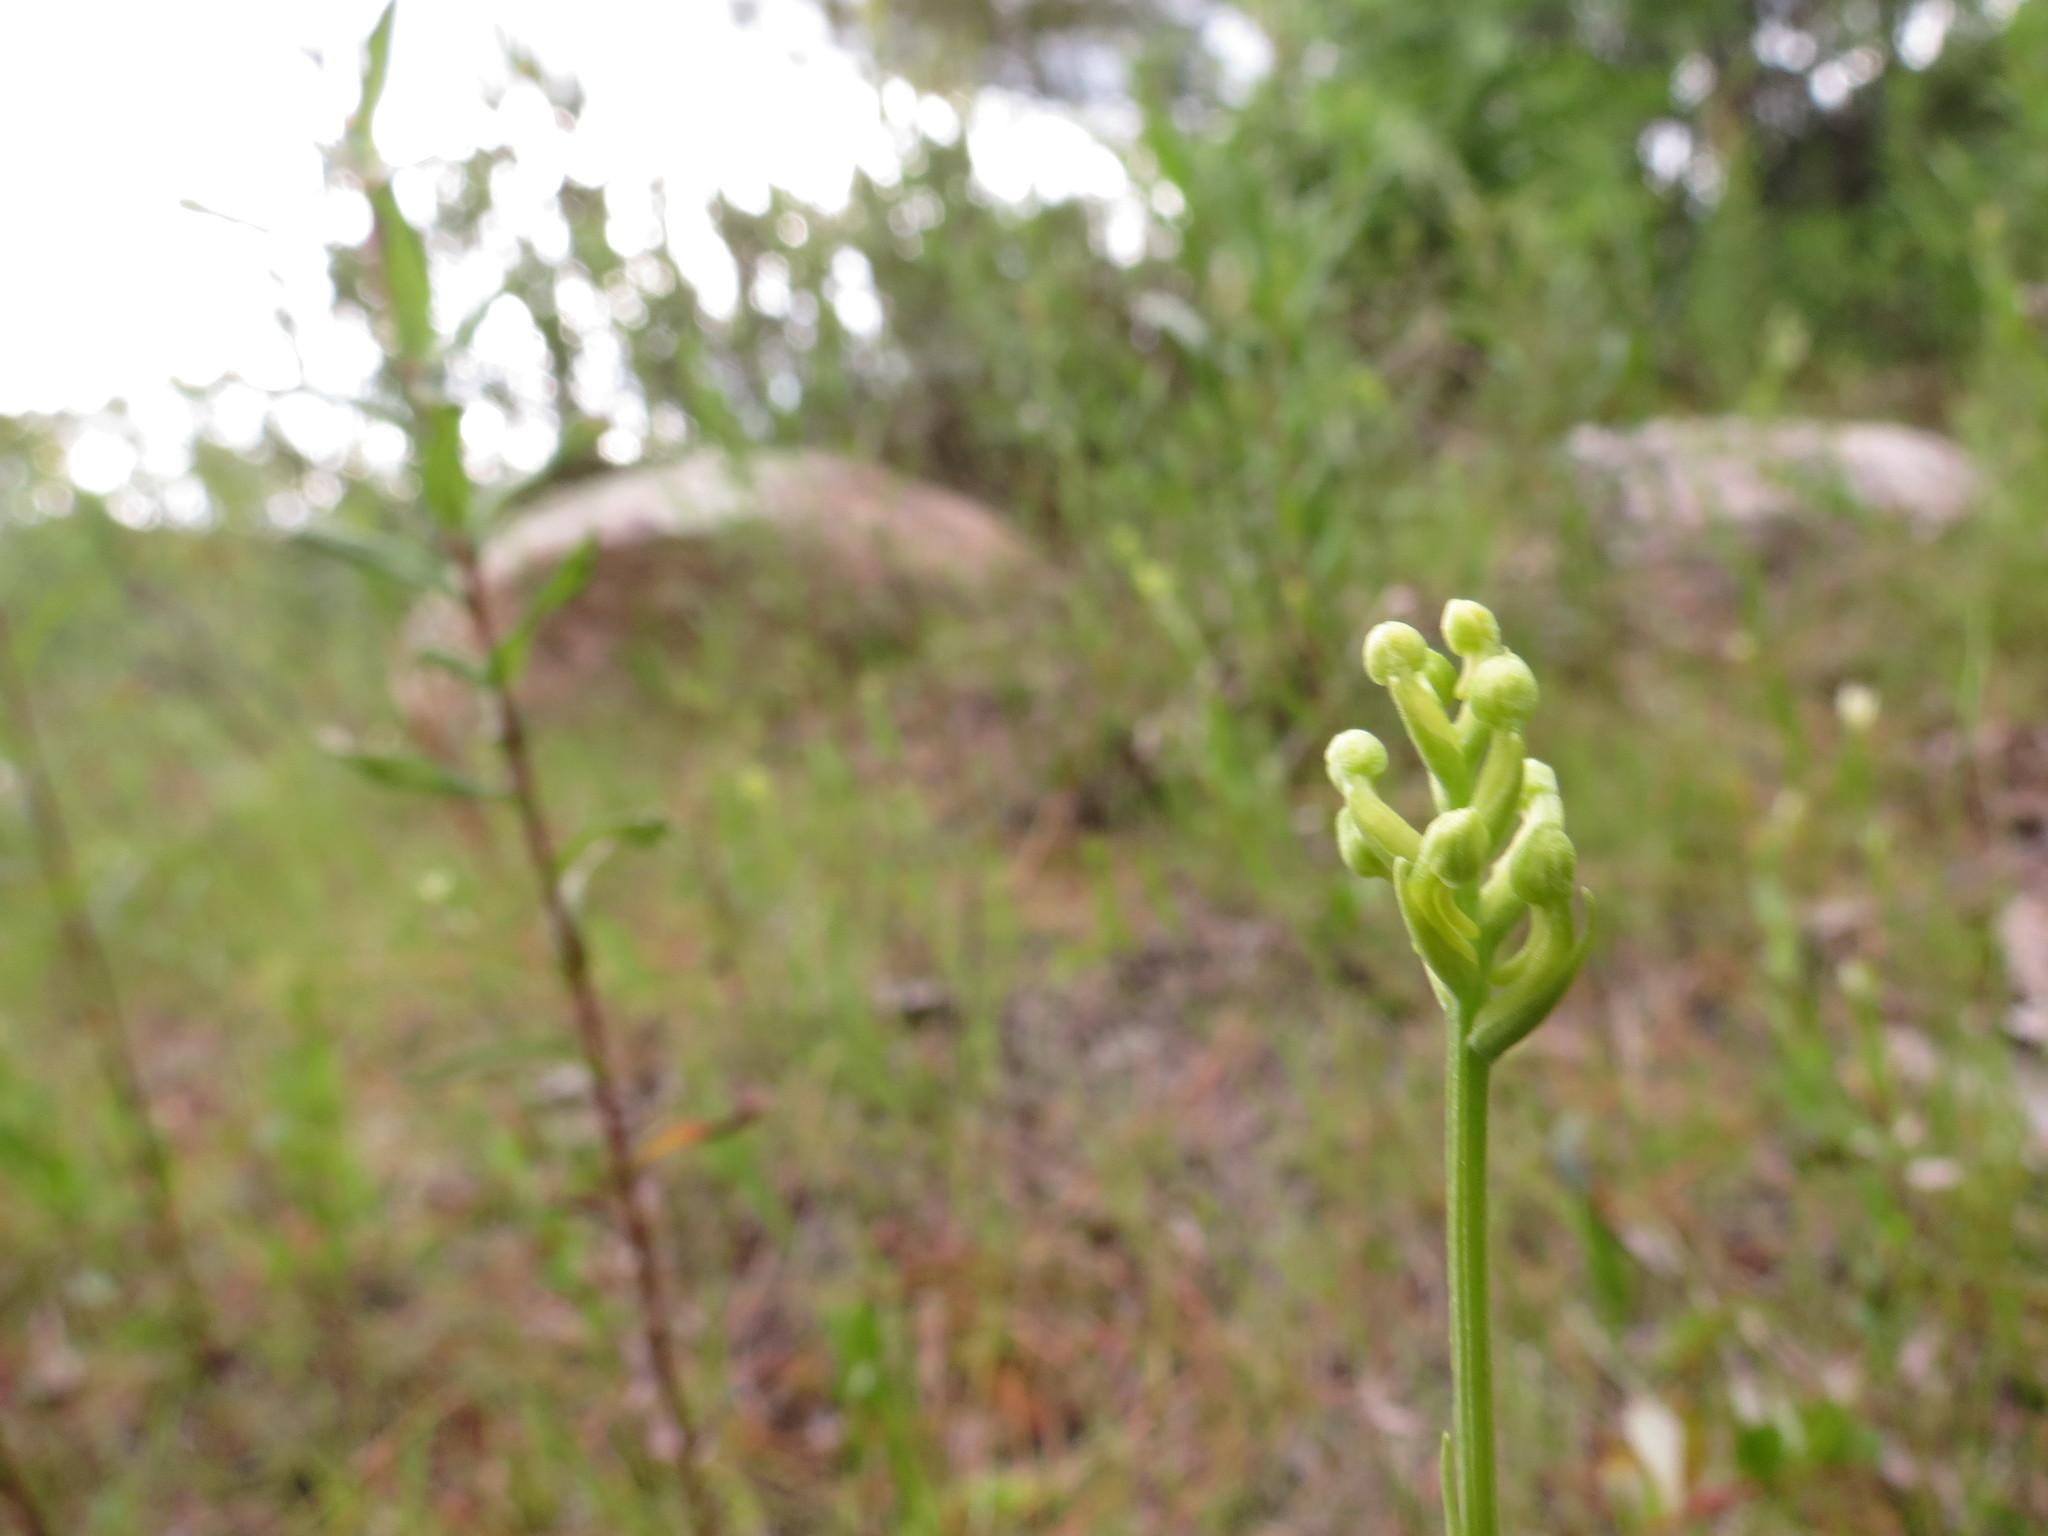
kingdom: Plantae
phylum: Tracheophyta
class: Liliopsida
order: Asparagales
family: Orchidaceae
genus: Platanthera
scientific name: Platanthera clavellata
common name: Club-spur orchid
